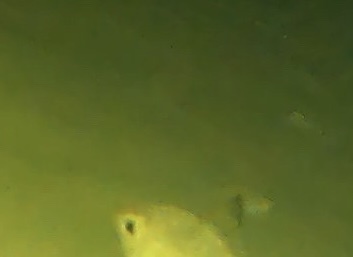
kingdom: Animalia
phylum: Chordata
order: Perciformes
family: Gerreidae
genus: Gerres
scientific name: Gerres subfasciatus
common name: Common silver belly
